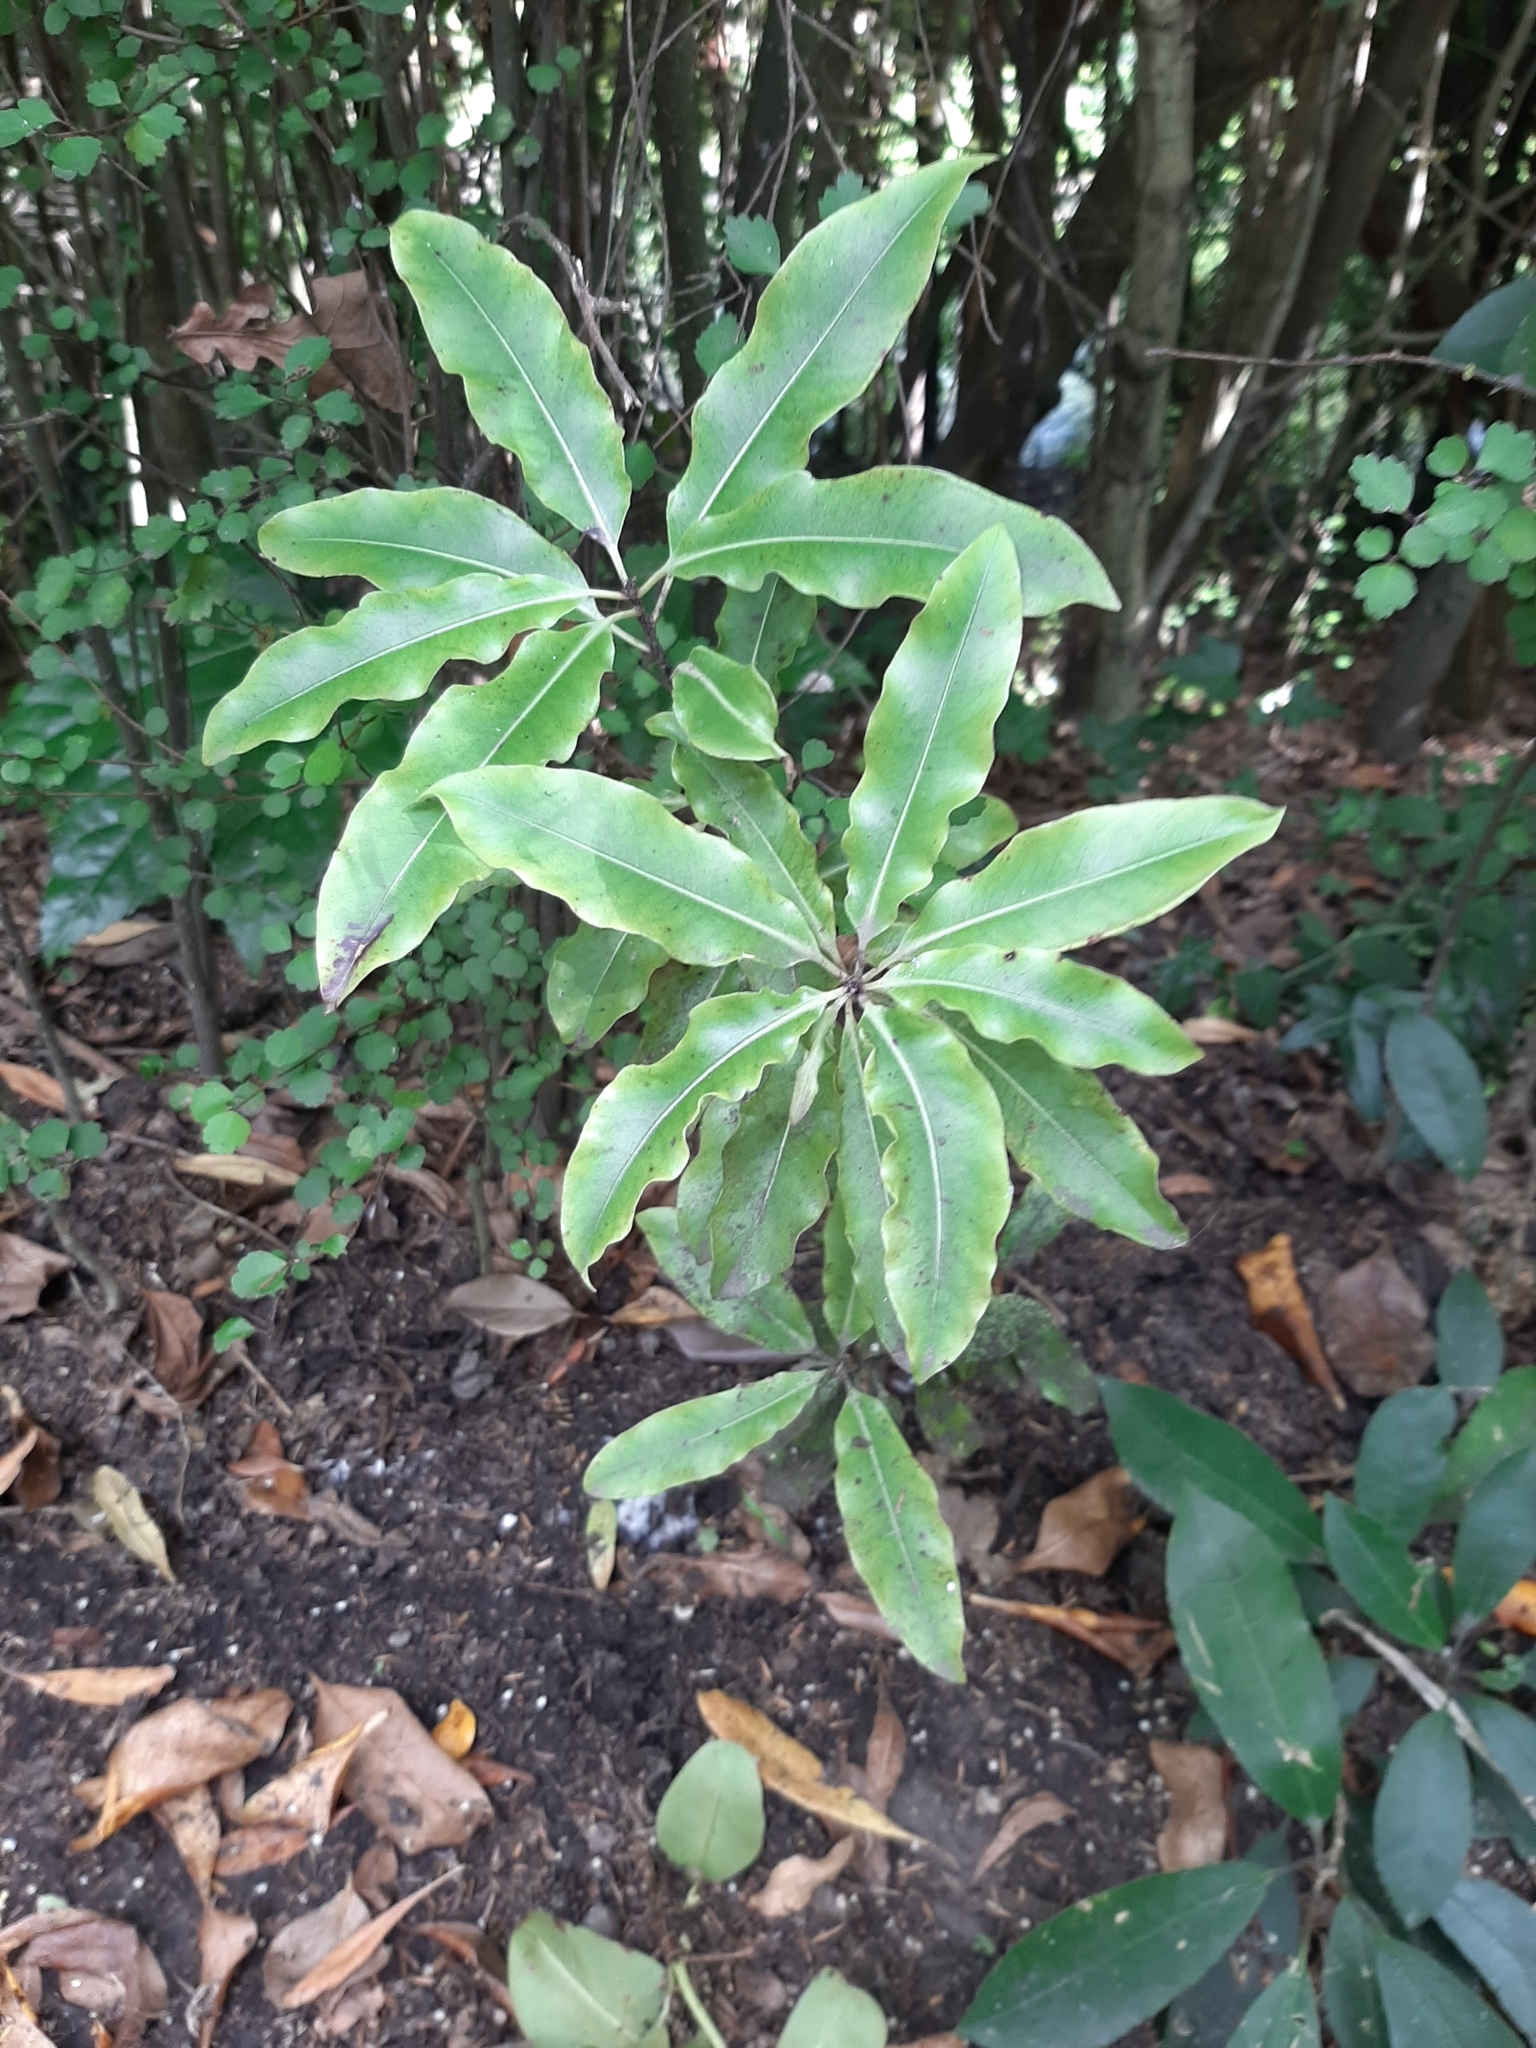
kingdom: Plantae
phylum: Tracheophyta
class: Magnoliopsida
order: Apiales
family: Pittosporaceae
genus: Pittosporum
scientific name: Pittosporum eugenioides
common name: Lemonwood
